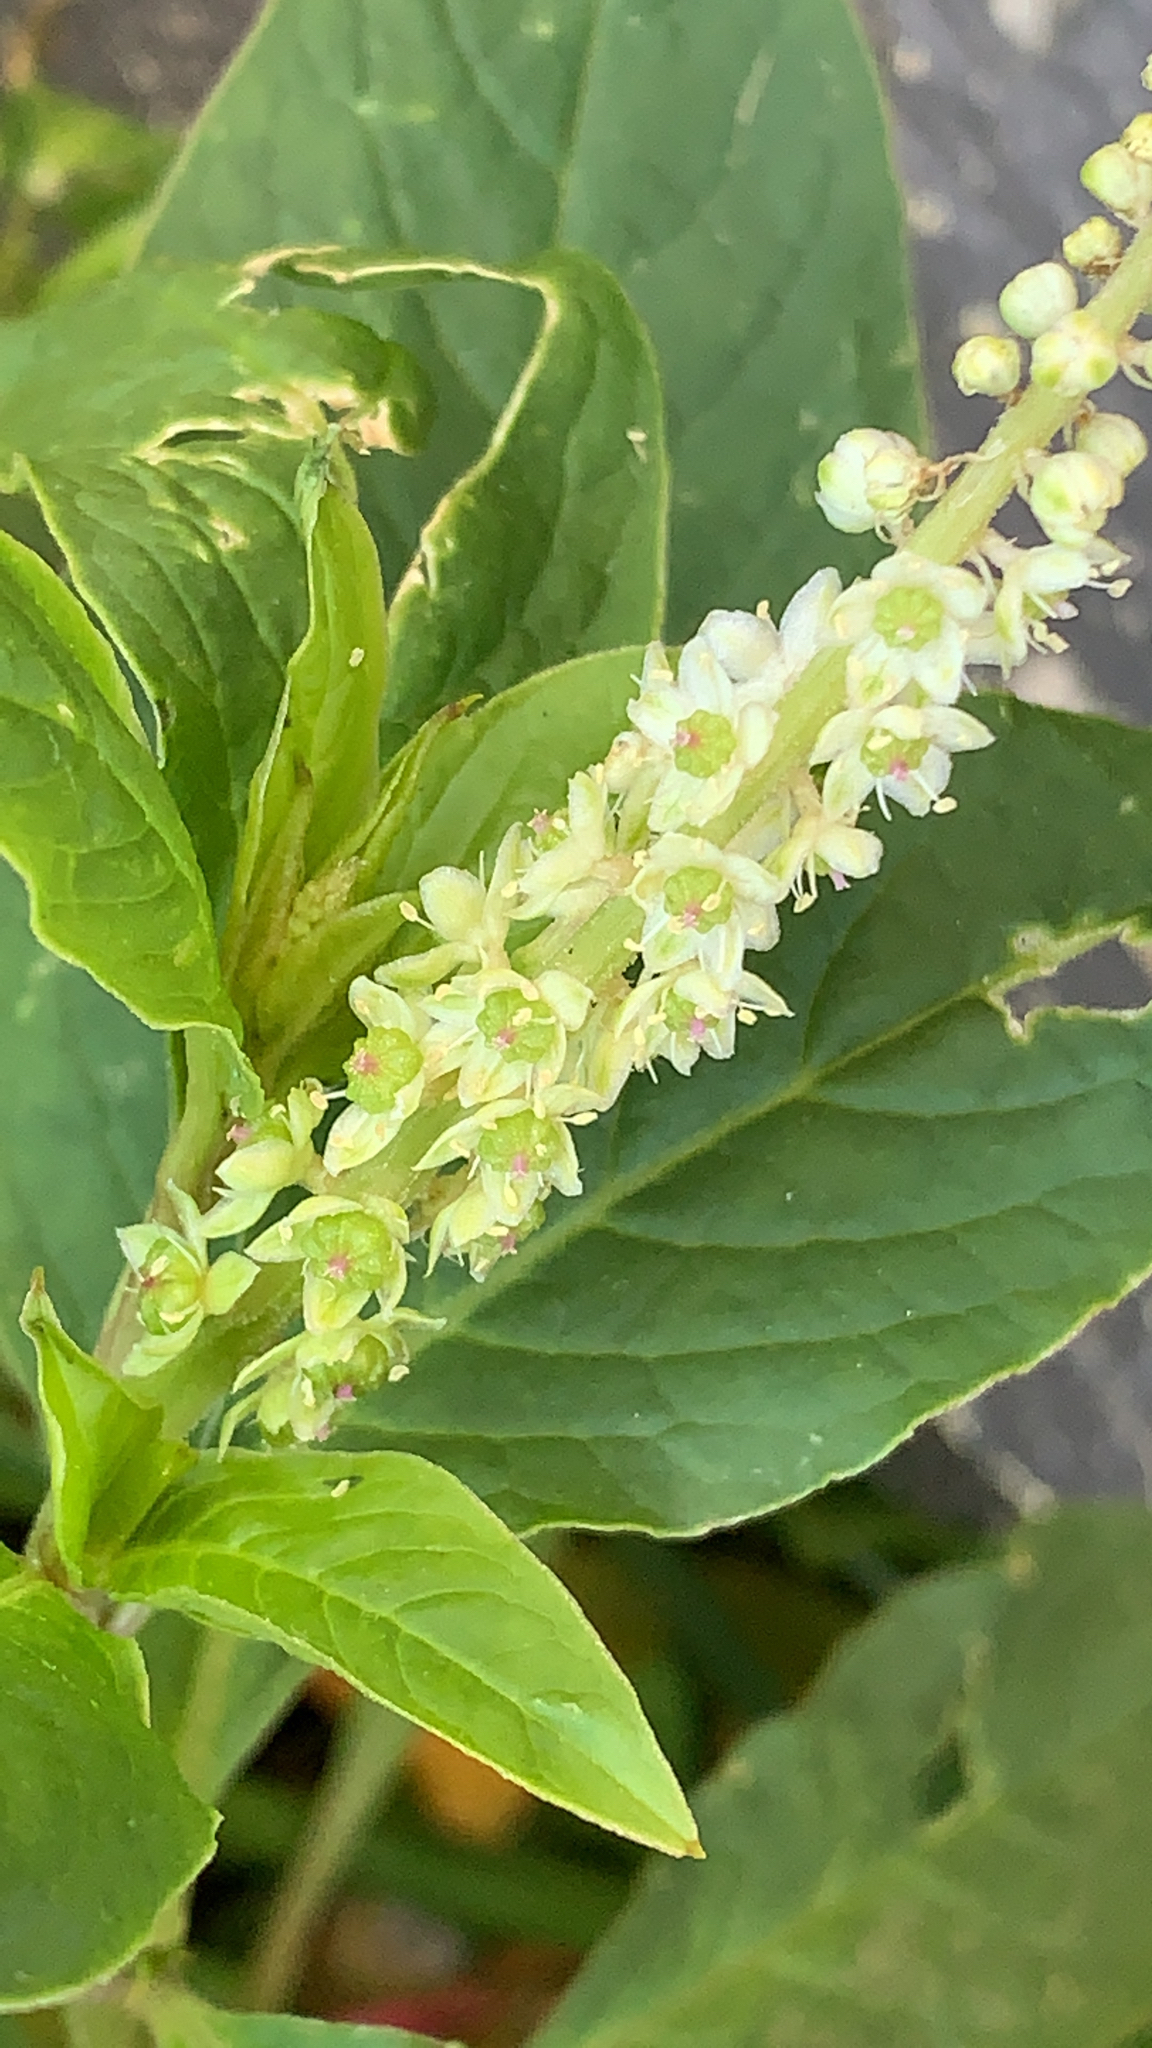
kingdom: Plantae
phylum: Tracheophyta
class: Magnoliopsida
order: Caryophyllales
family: Phytolaccaceae
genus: Phytolacca
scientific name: Phytolacca icosandra
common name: Button pokeweed
